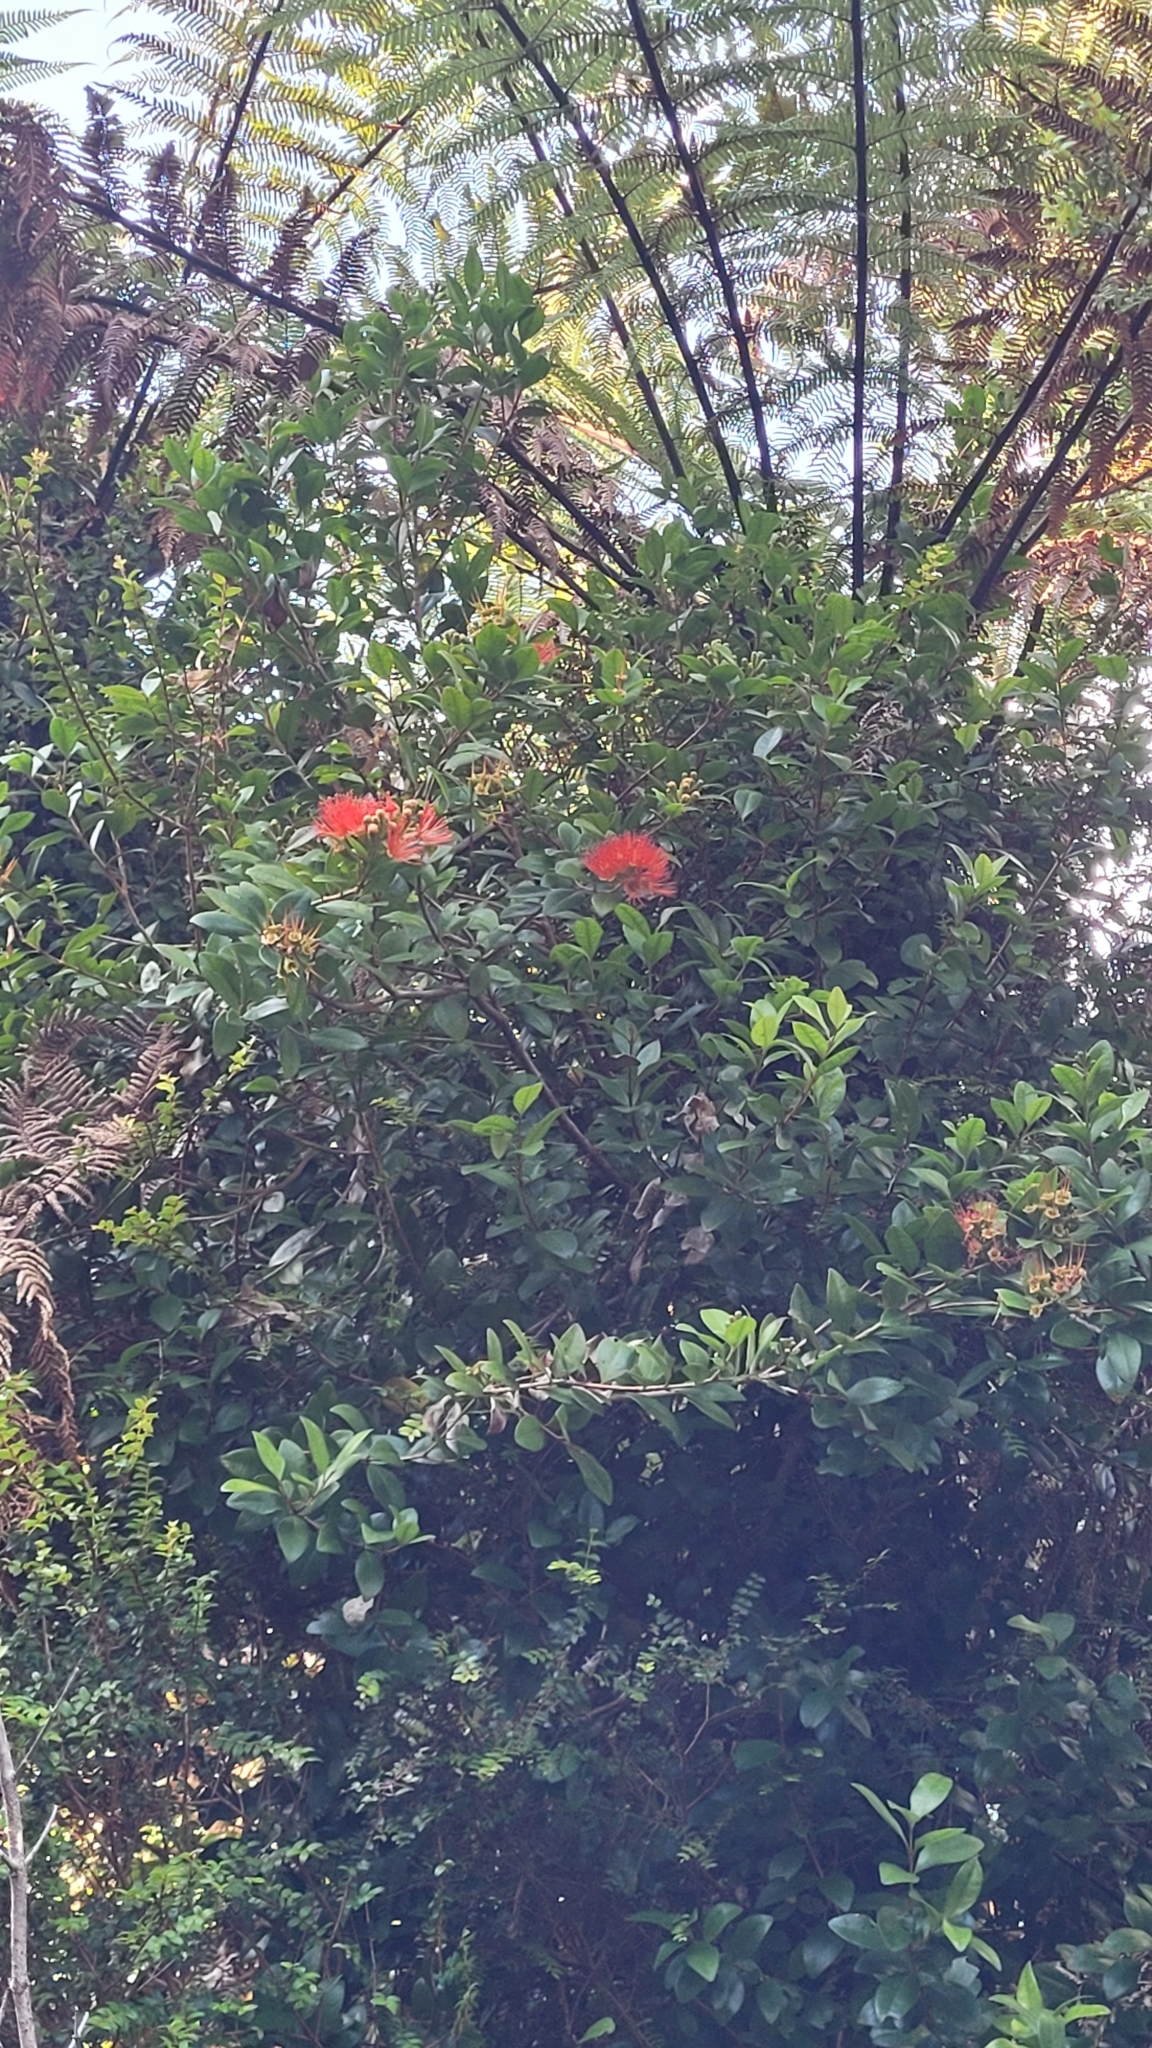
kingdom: Plantae
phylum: Tracheophyta
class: Magnoliopsida
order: Myrtales
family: Myrtaceae
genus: Metrosideros
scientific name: Metrosideros fulgens
